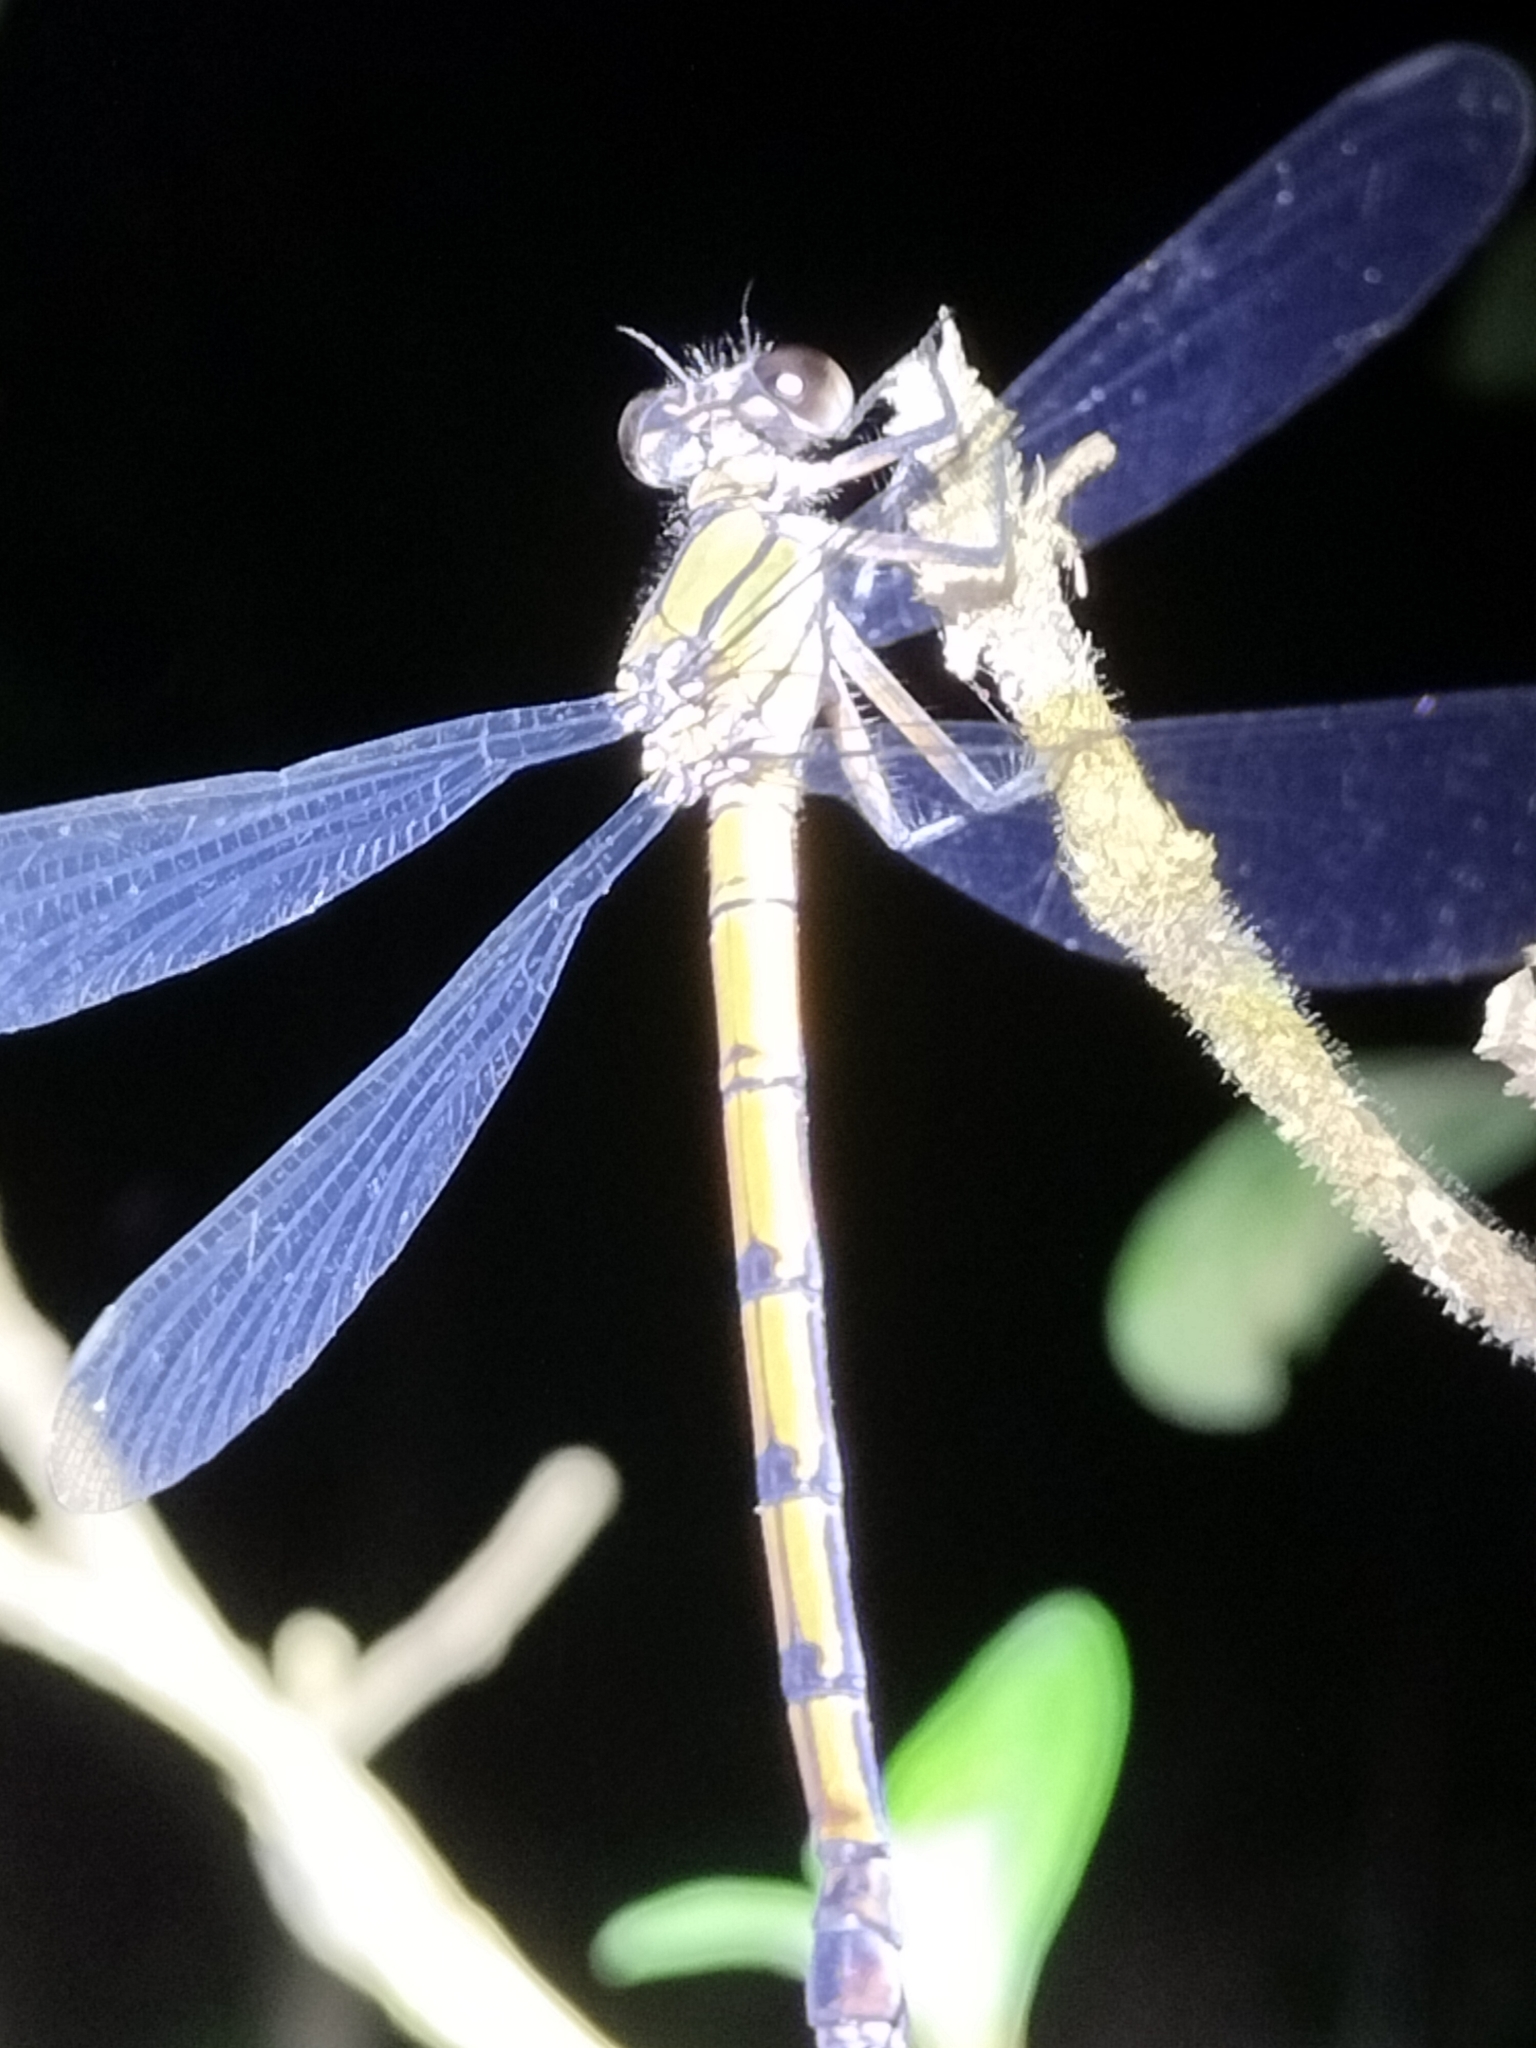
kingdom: Animalia
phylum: Arthropoda
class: Insecta
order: Odonata
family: Lestoideidae
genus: Diphlebia
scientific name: Diphlebia euphoeoides
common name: Tropical rockmaster
